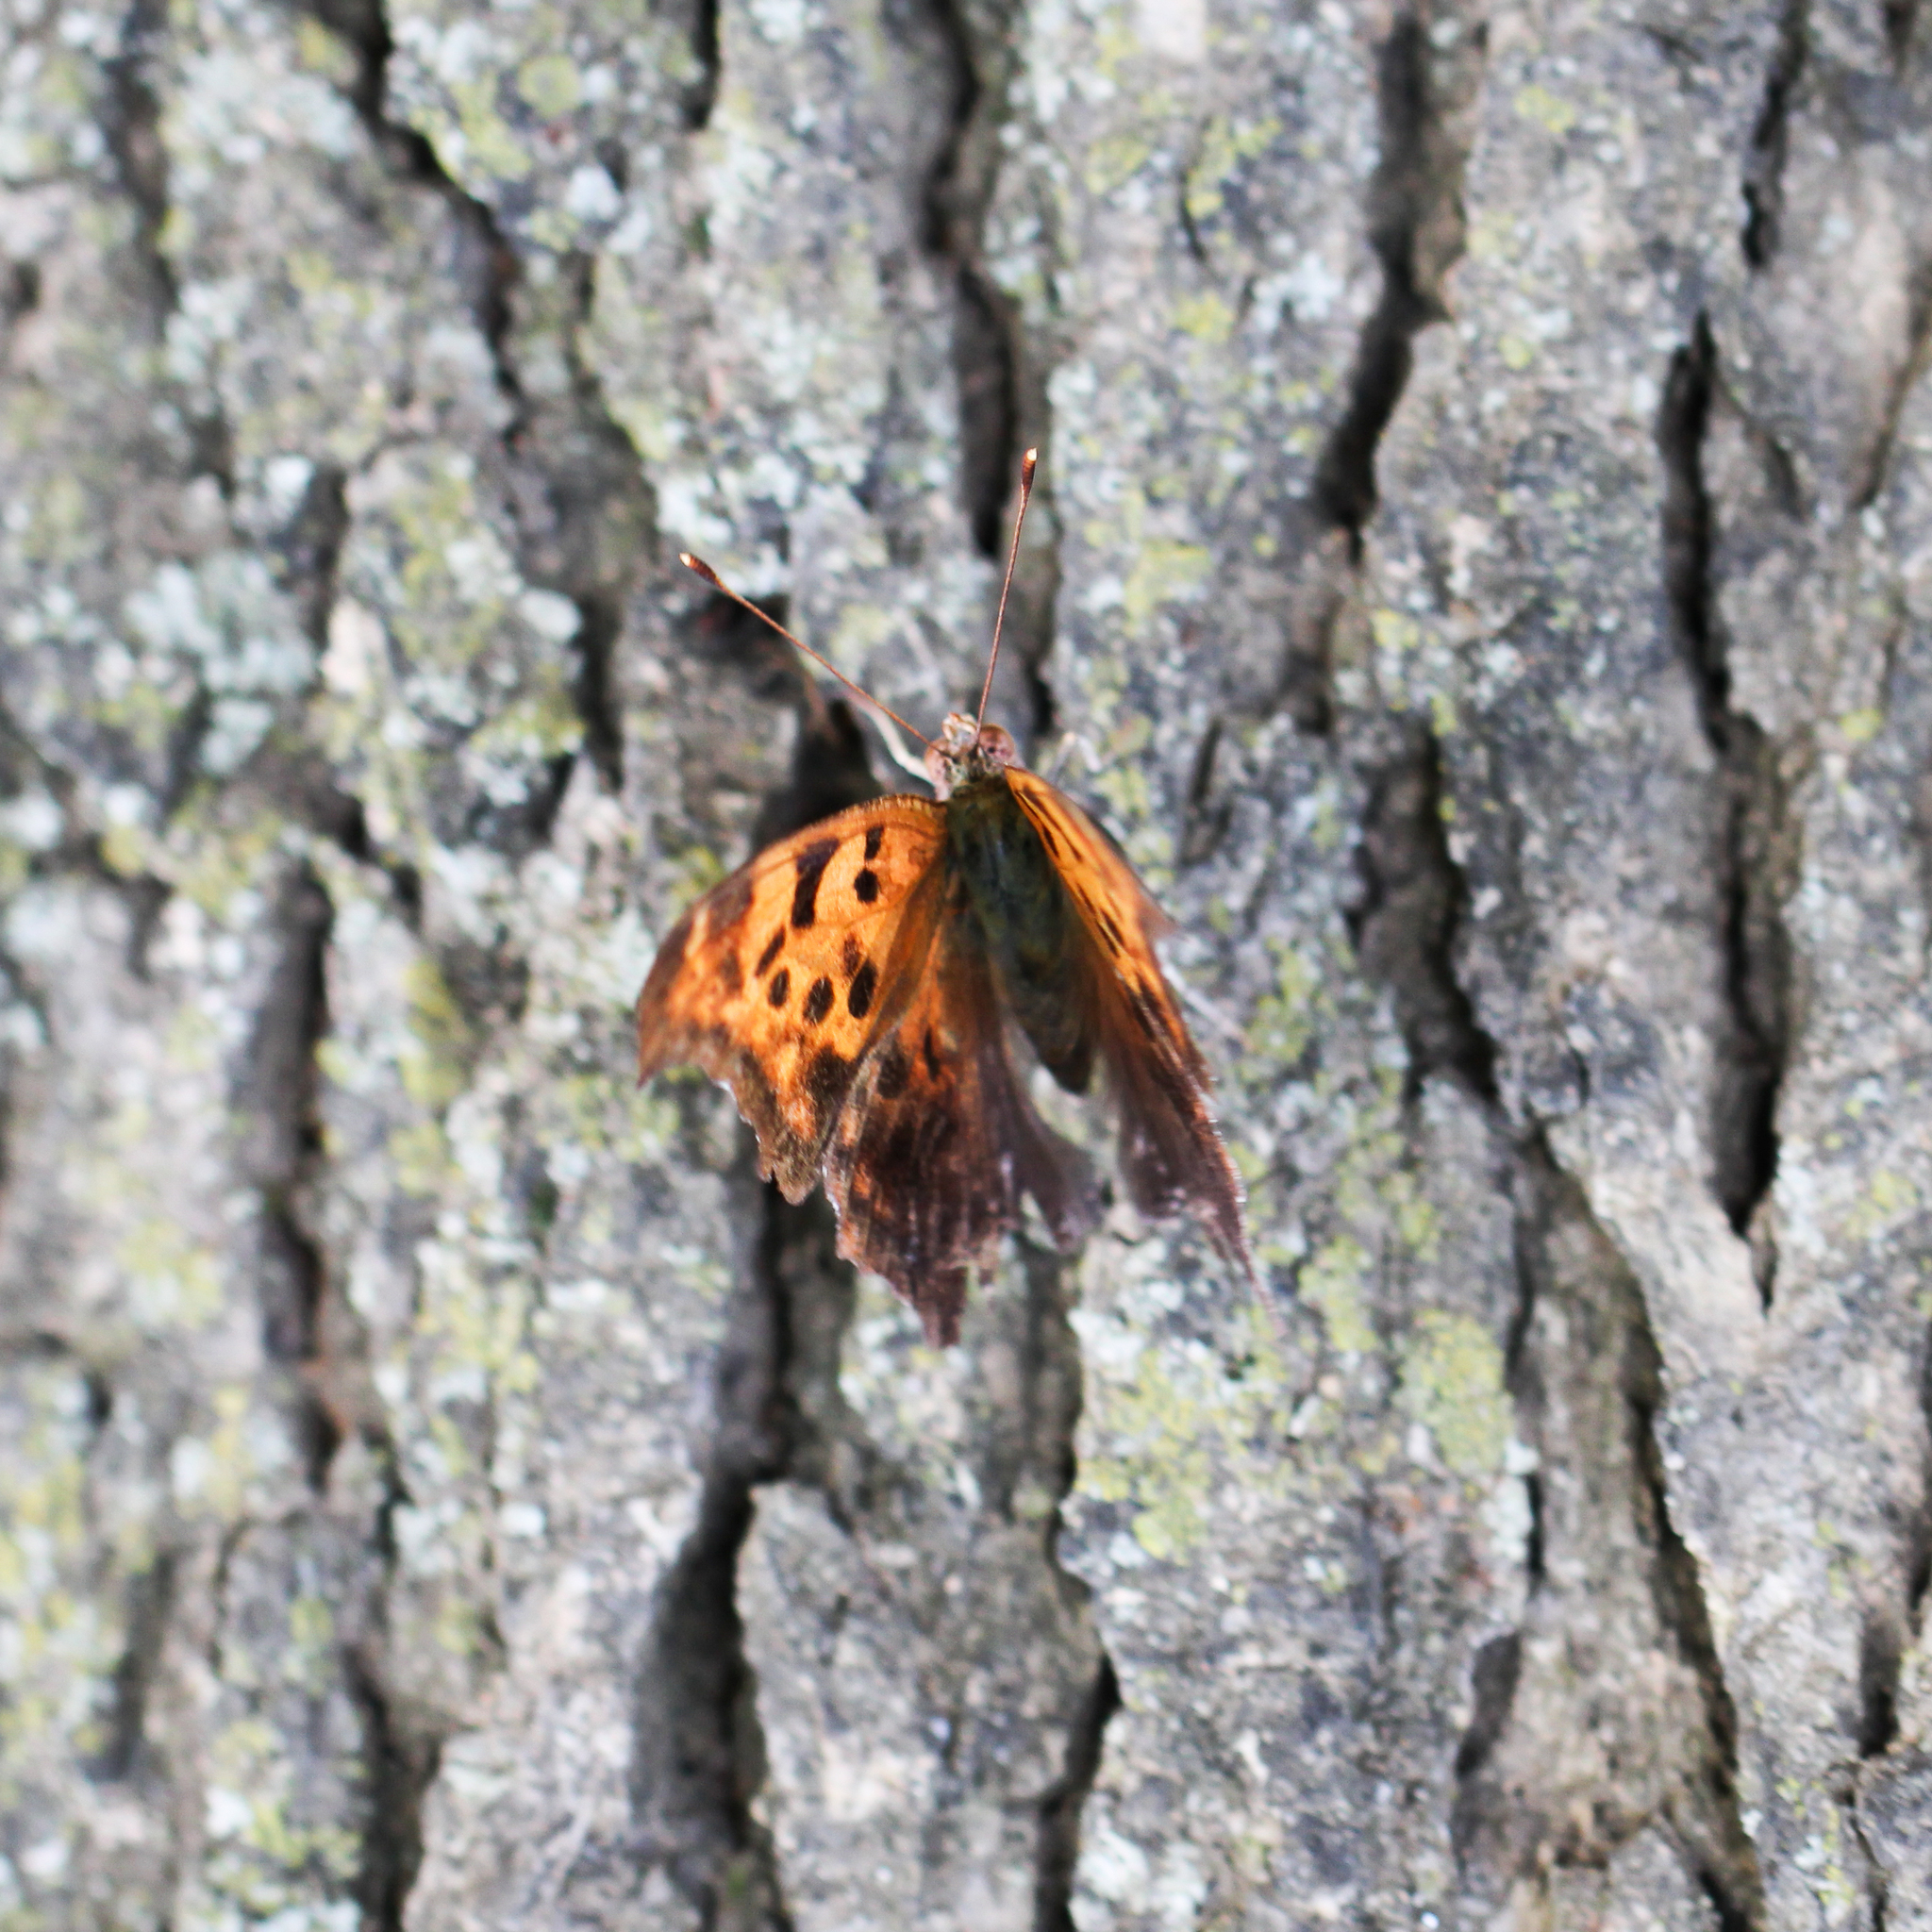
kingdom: Animalia
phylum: Arthropoda
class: Insecta
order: Lepidoptera
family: Nymphalidae
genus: Polygonia
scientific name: Polygonia interrogationis
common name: Question mark
